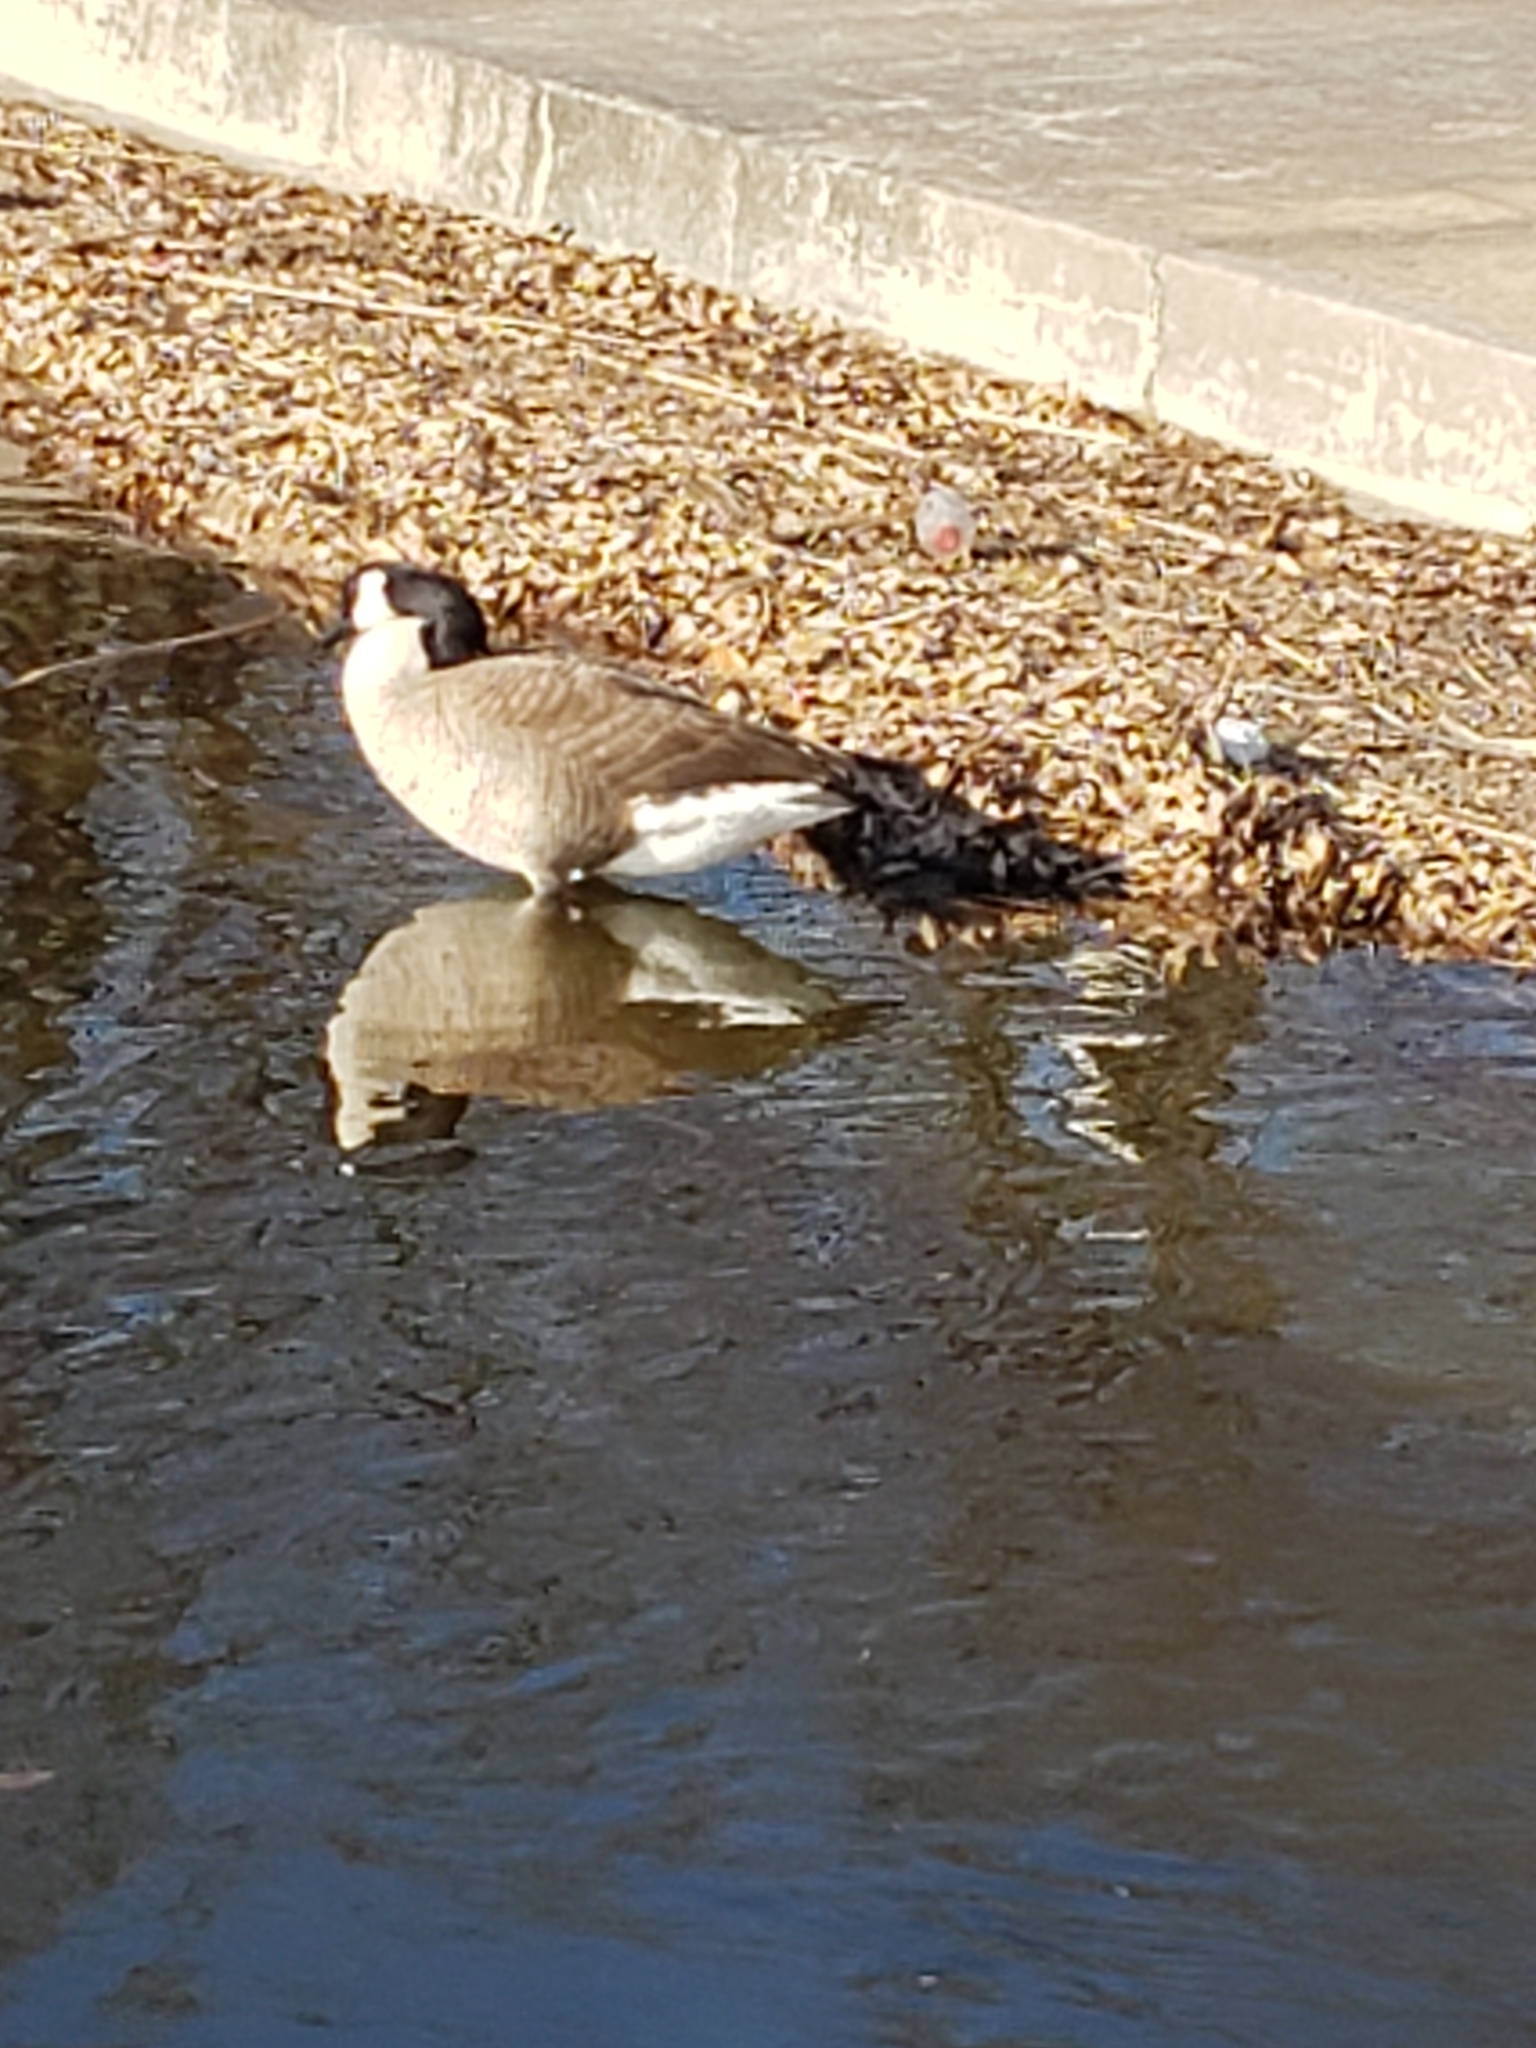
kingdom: Animalia
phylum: Chordata
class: Aves
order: Anseriformes
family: Anatidae
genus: Branta
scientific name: Branta canadensis
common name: Canada goose
